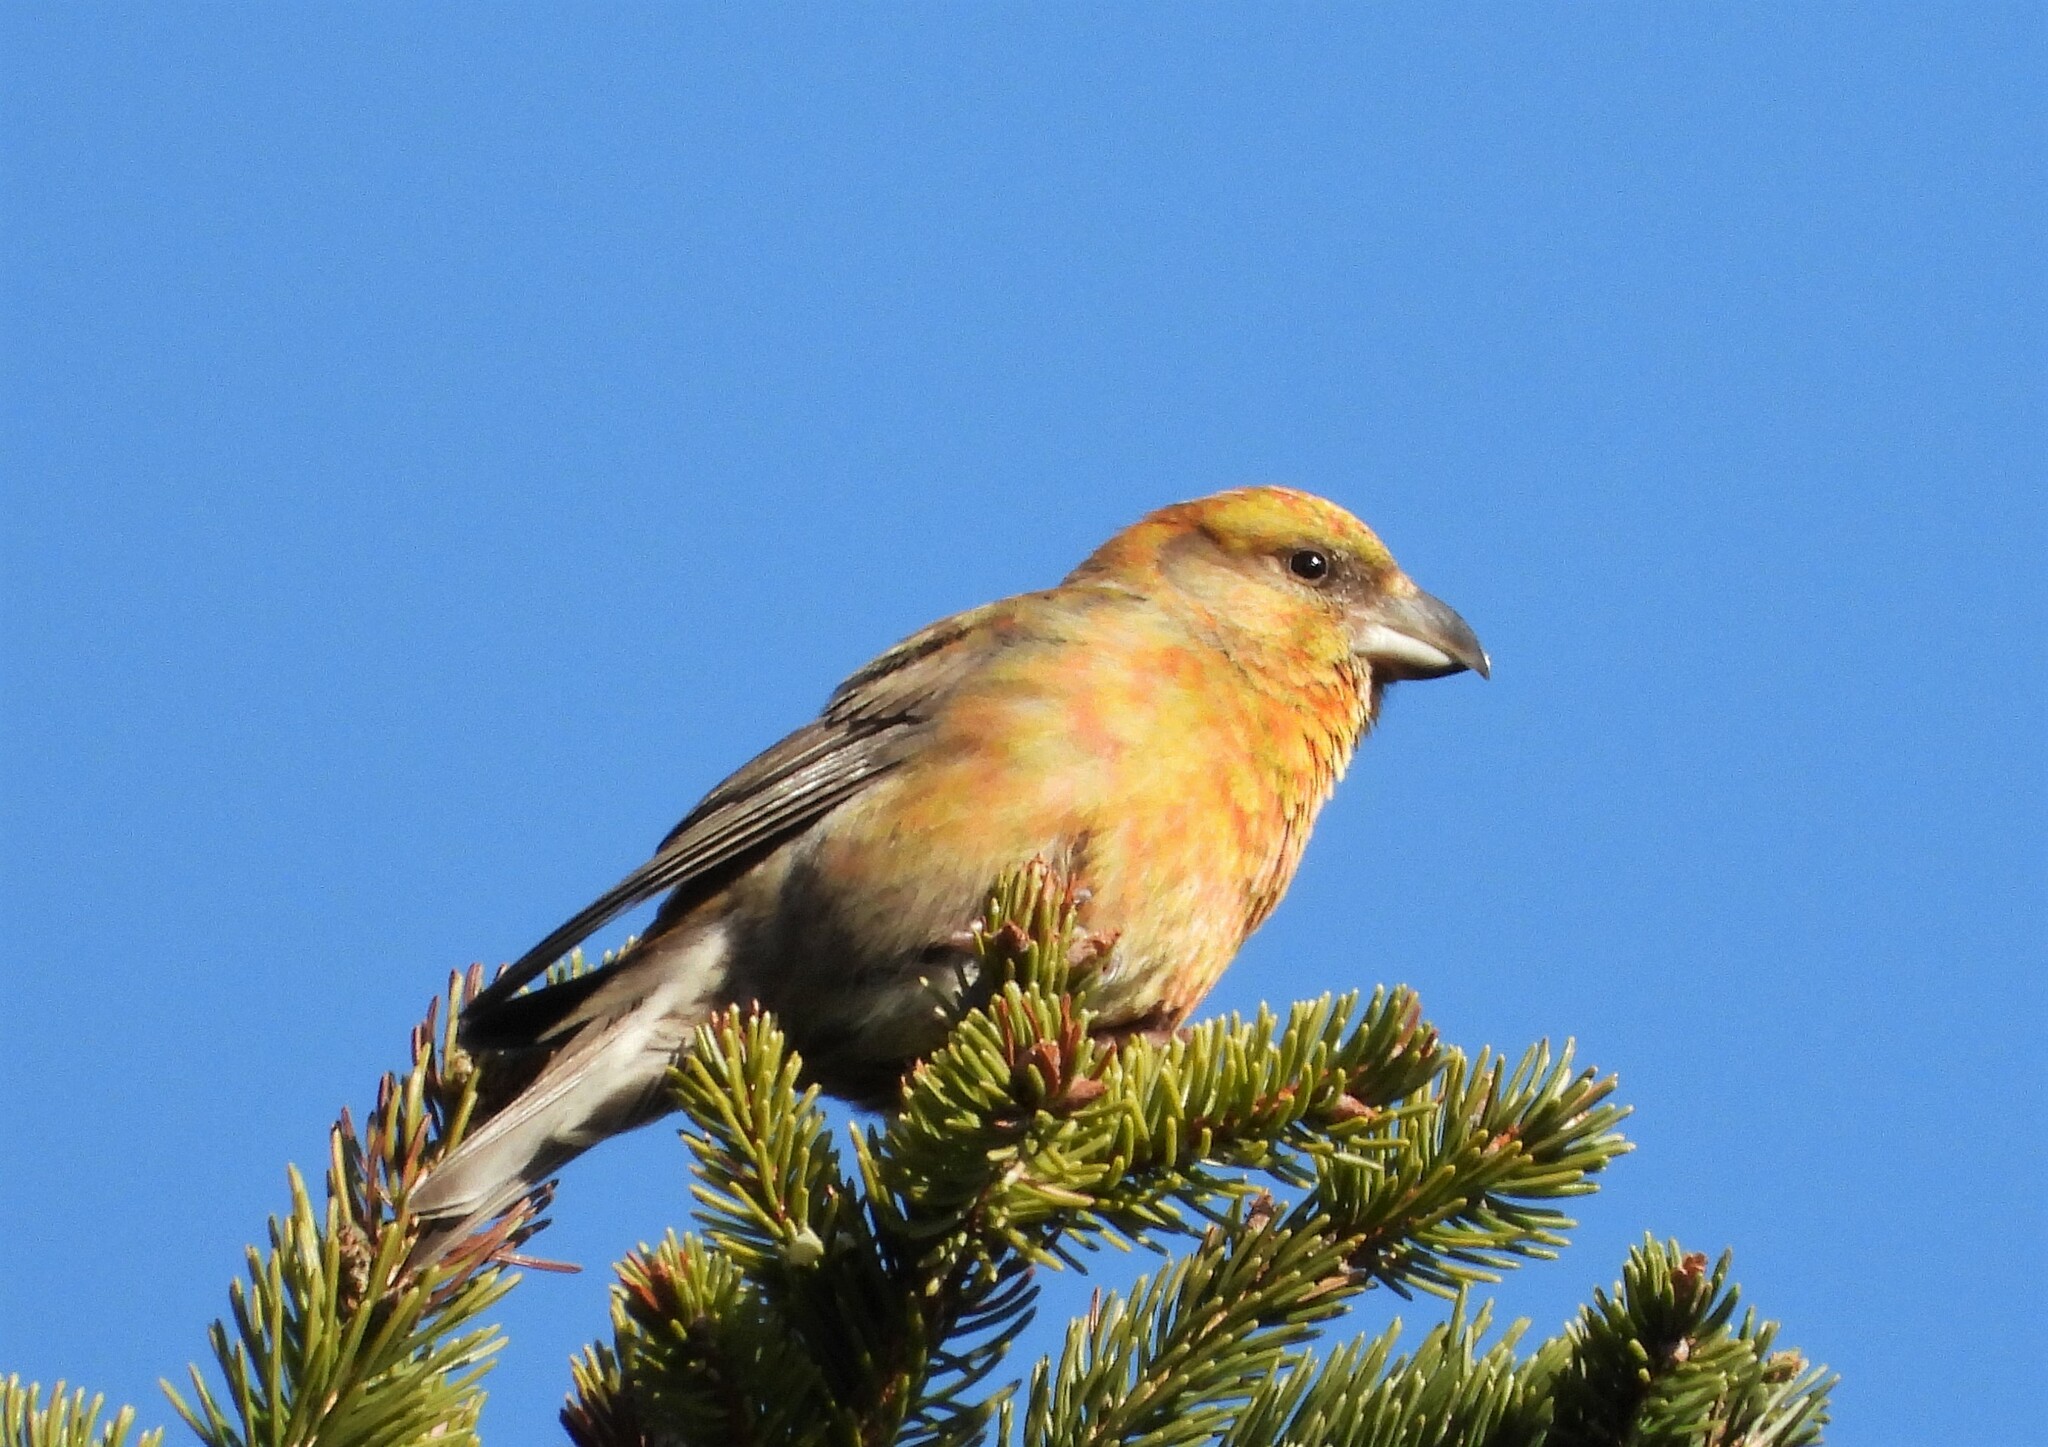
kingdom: Animalia
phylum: Chordata
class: Aves
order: Passeriformes
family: Fringillidae
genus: Loxia
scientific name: Loxia curvirostra
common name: Red crossbill
